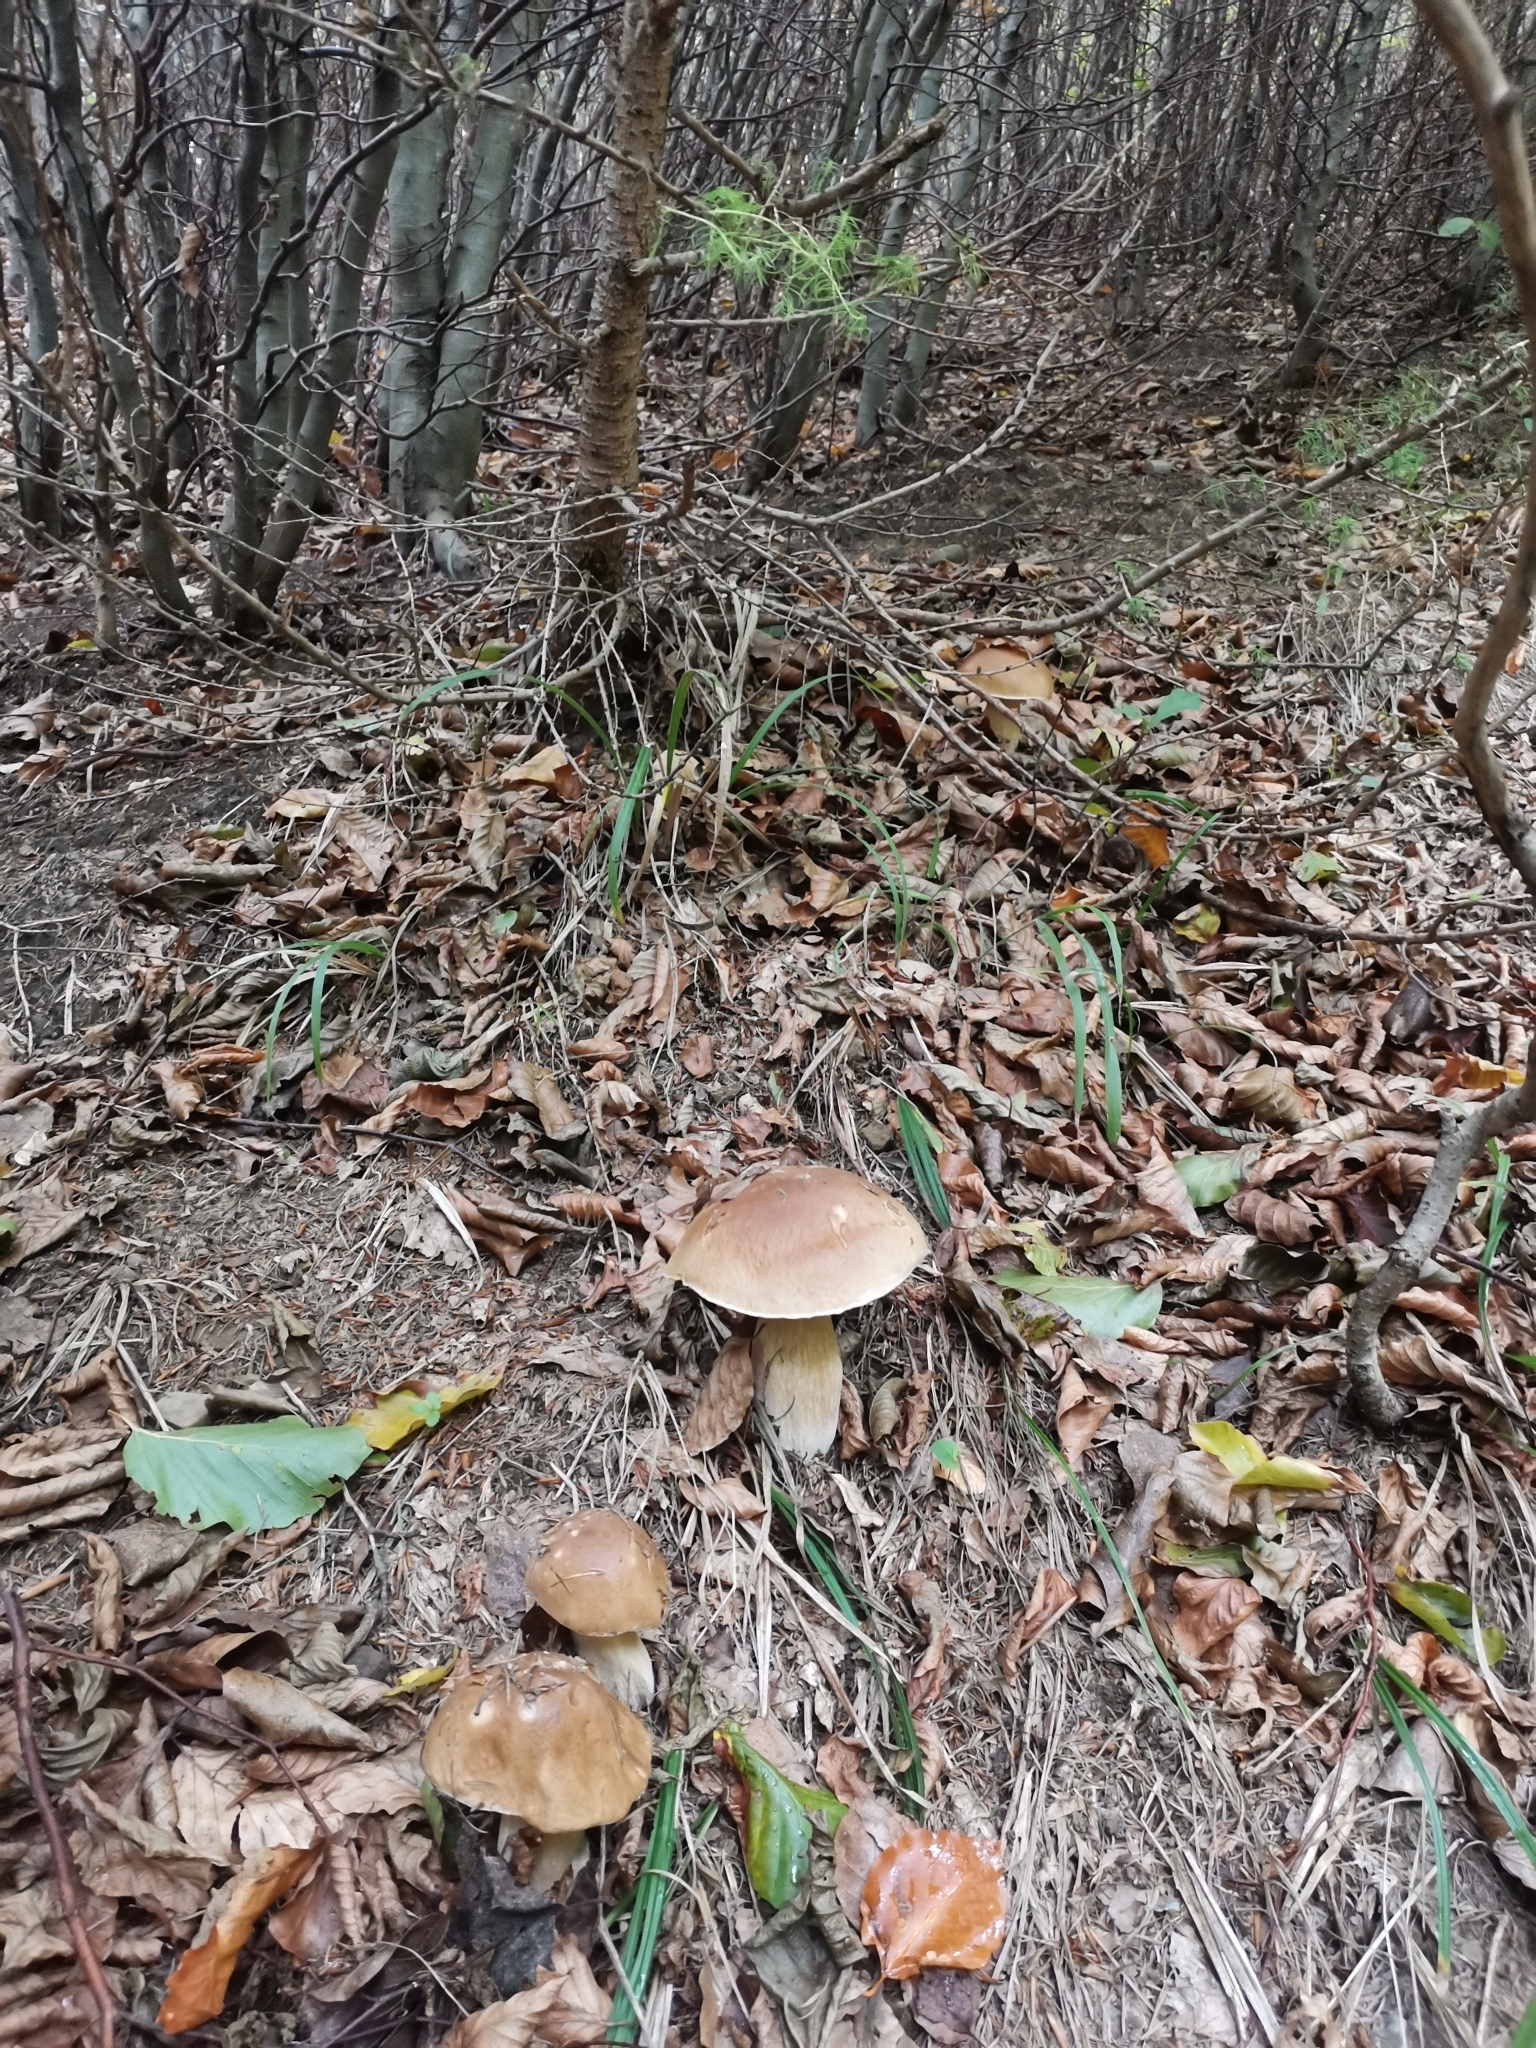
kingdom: Fungi
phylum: Basidiomycota
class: Agaricomycetes
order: Boletales
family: Boletaceae
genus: Boletus
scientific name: Boletus edulis
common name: Cep
